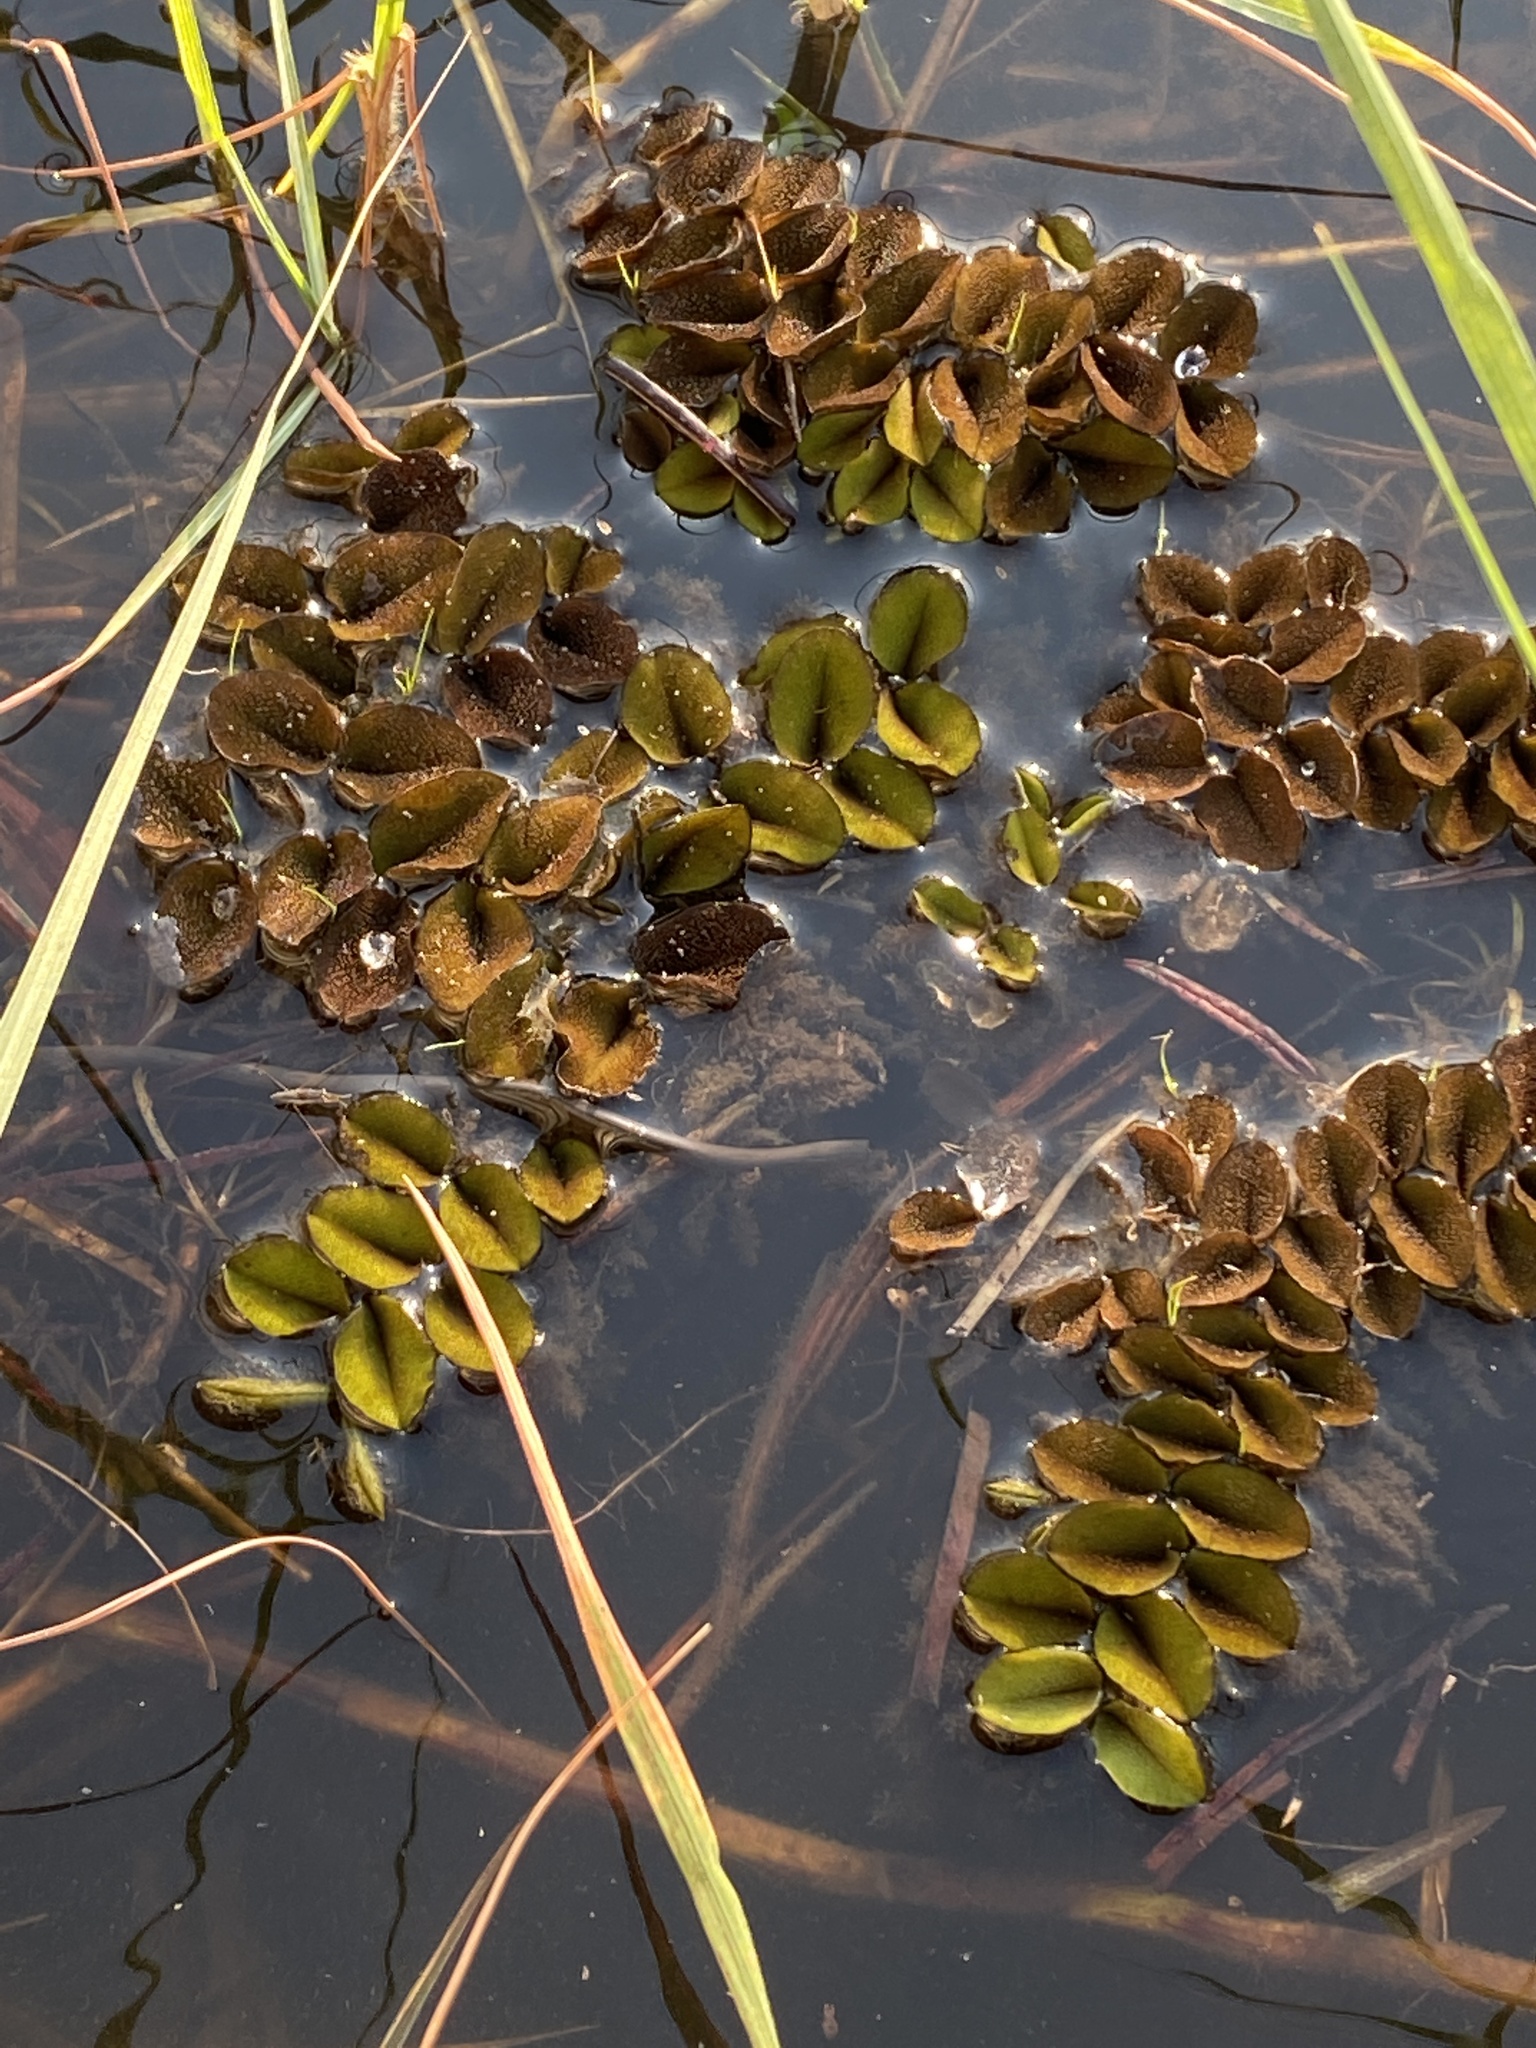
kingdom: Plantae
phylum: Tracheophyta
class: Polypodiopsida
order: Salviniales
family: Salviniaceae
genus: Salvinia
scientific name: Salvinia molesta
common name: Kariba weed
